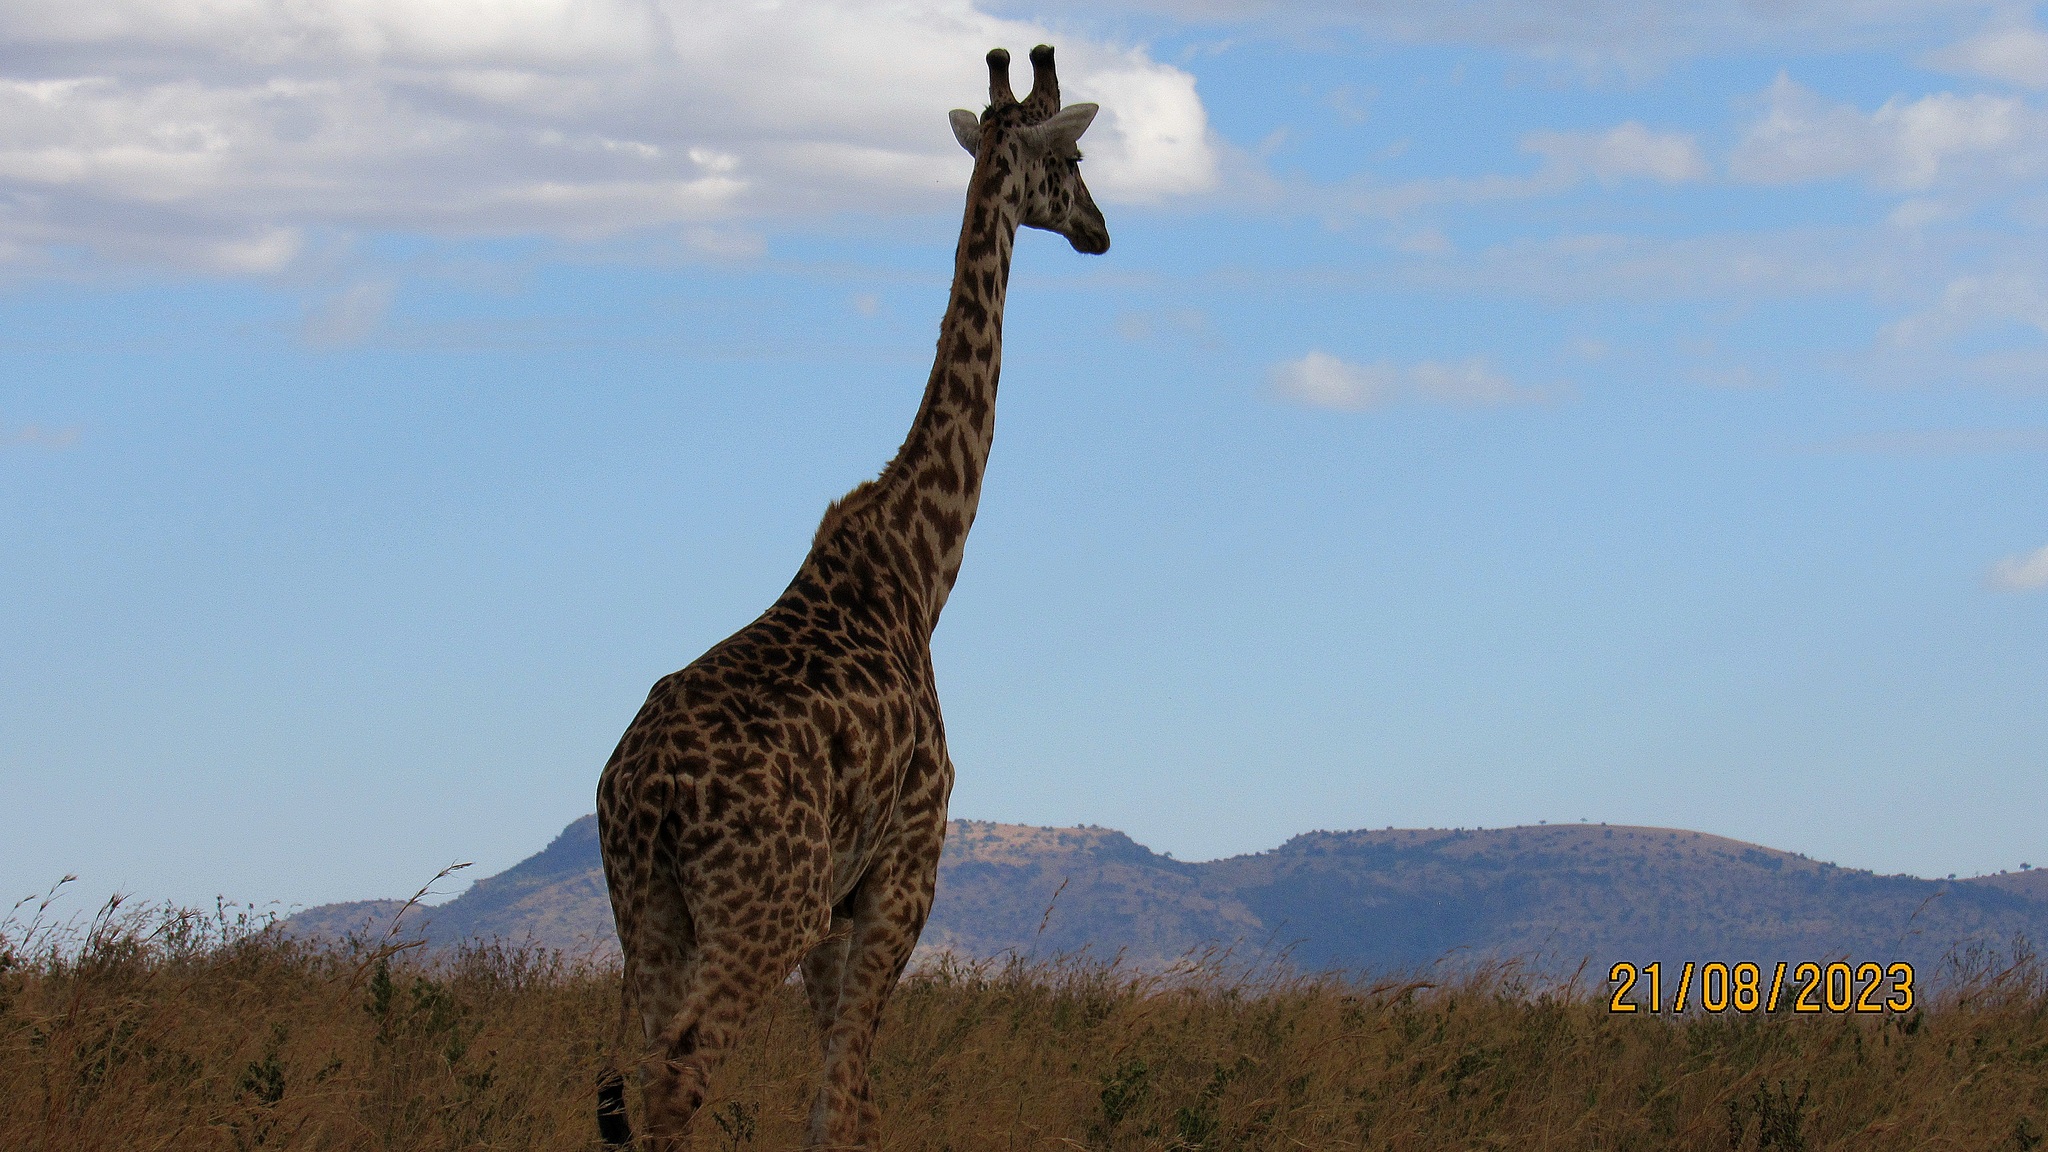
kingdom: Animalia
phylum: Chordata
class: Mammalia
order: Artiodactyla
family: Giraffidae
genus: Giraffa
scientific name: Giraffa tippelskirchi
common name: Masai giraffe
